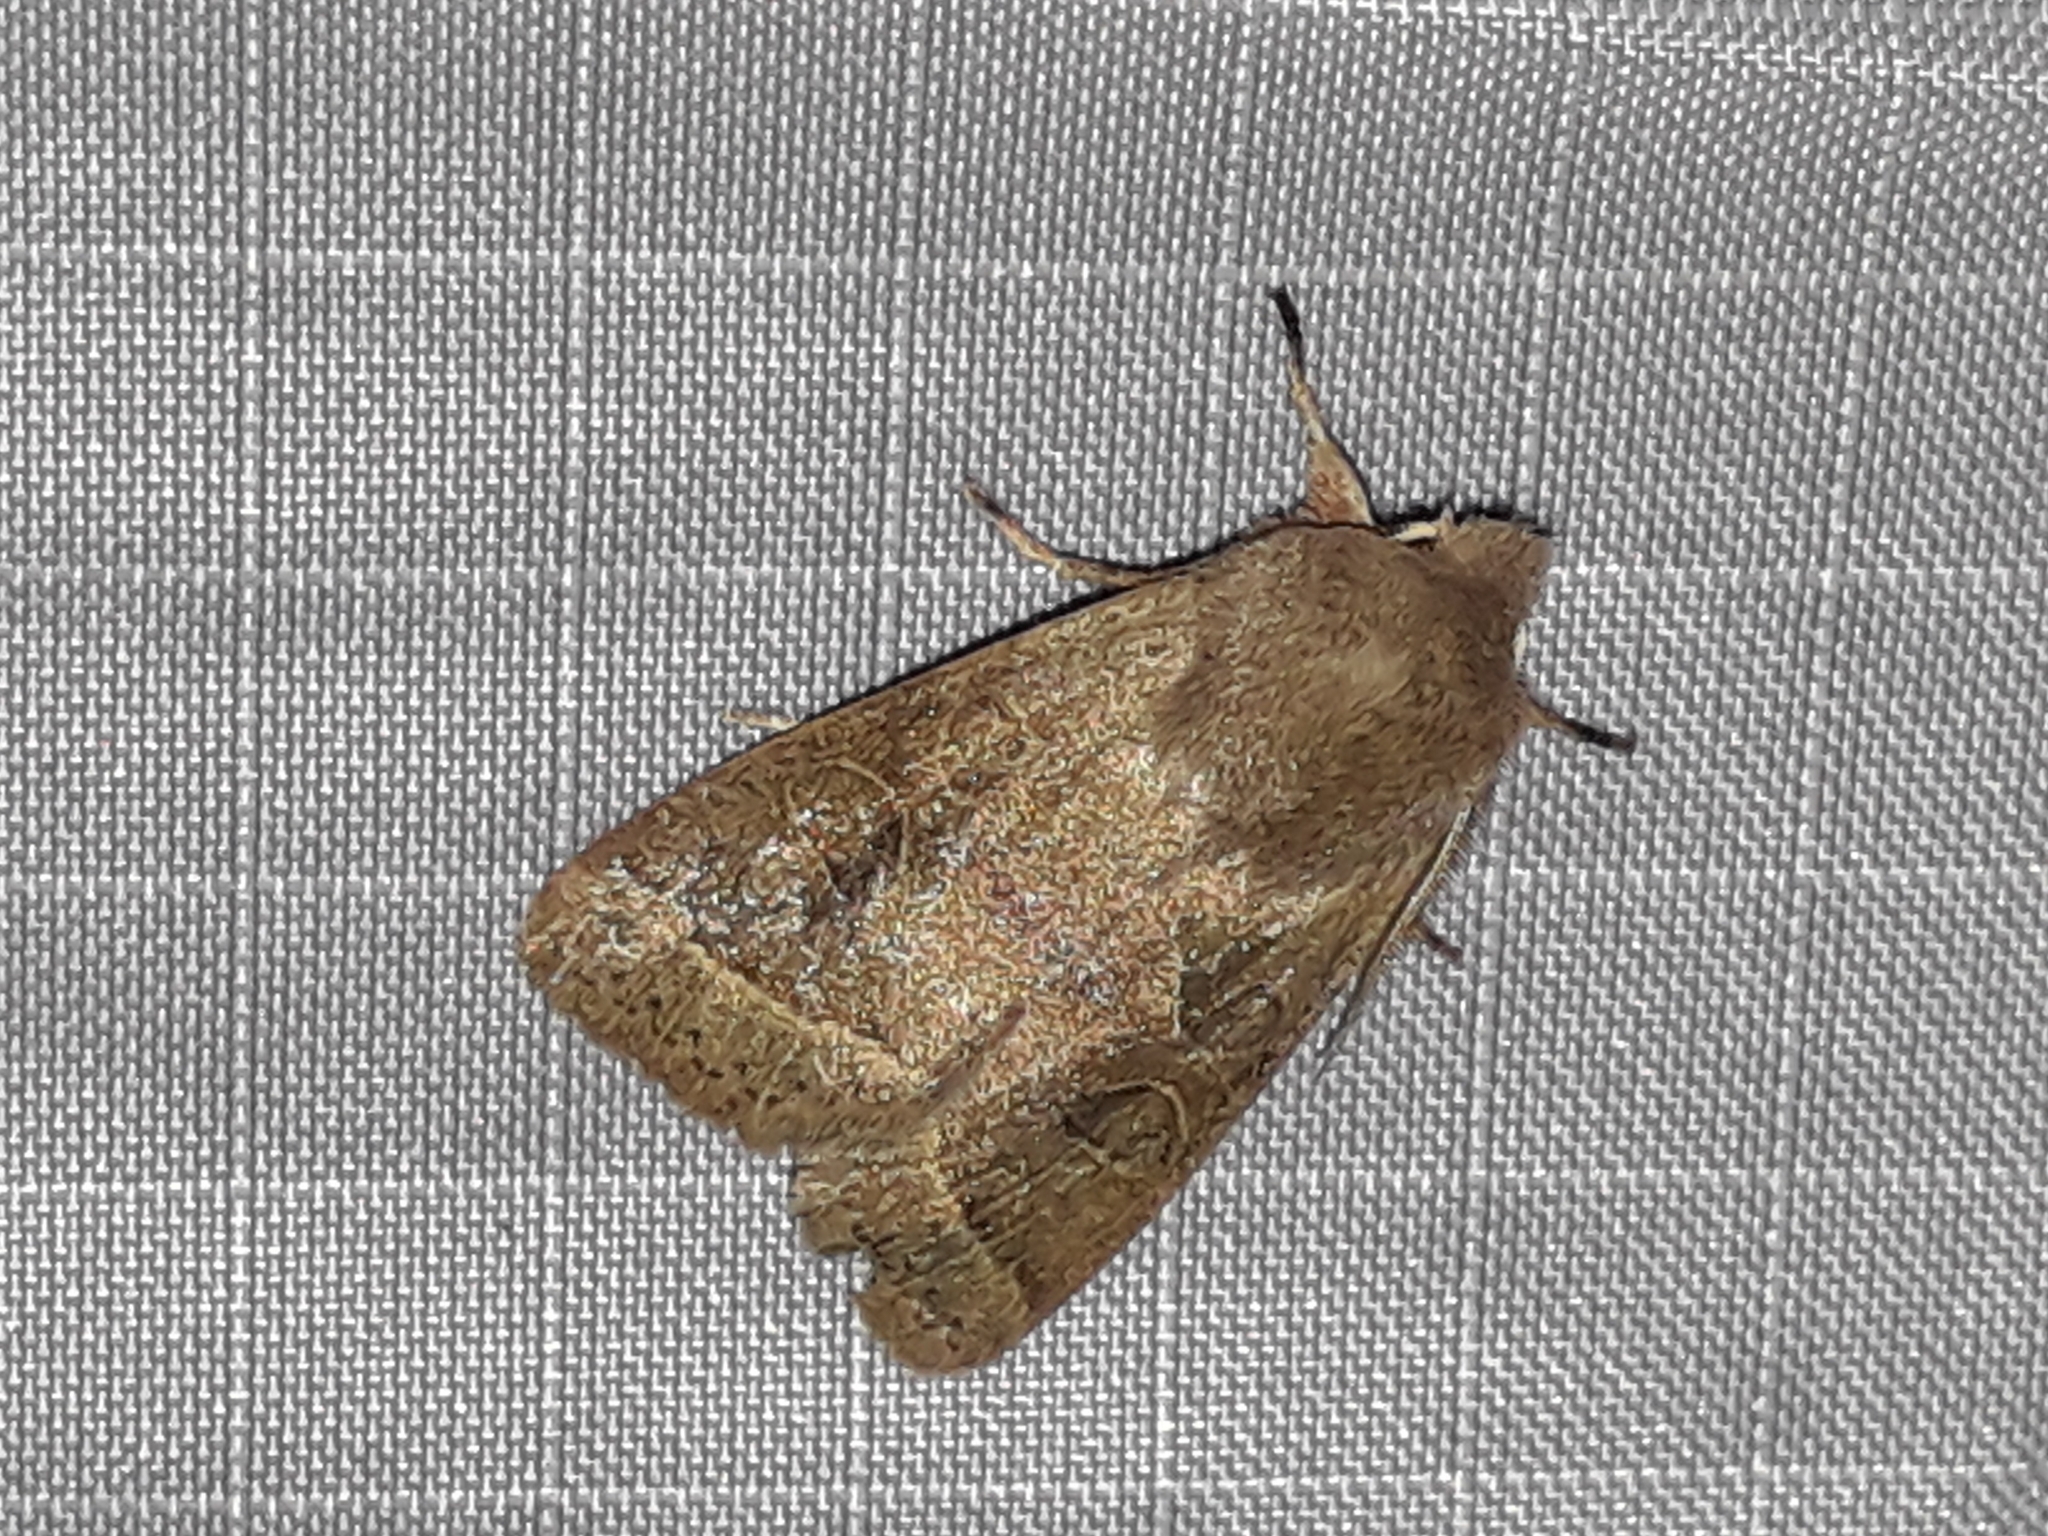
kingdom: Animalia
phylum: Arthropoda
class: Insecta
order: Lepidoptera
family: Noctuidae
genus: Orthosia
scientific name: Orthosia cerasi
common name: Common quaker
